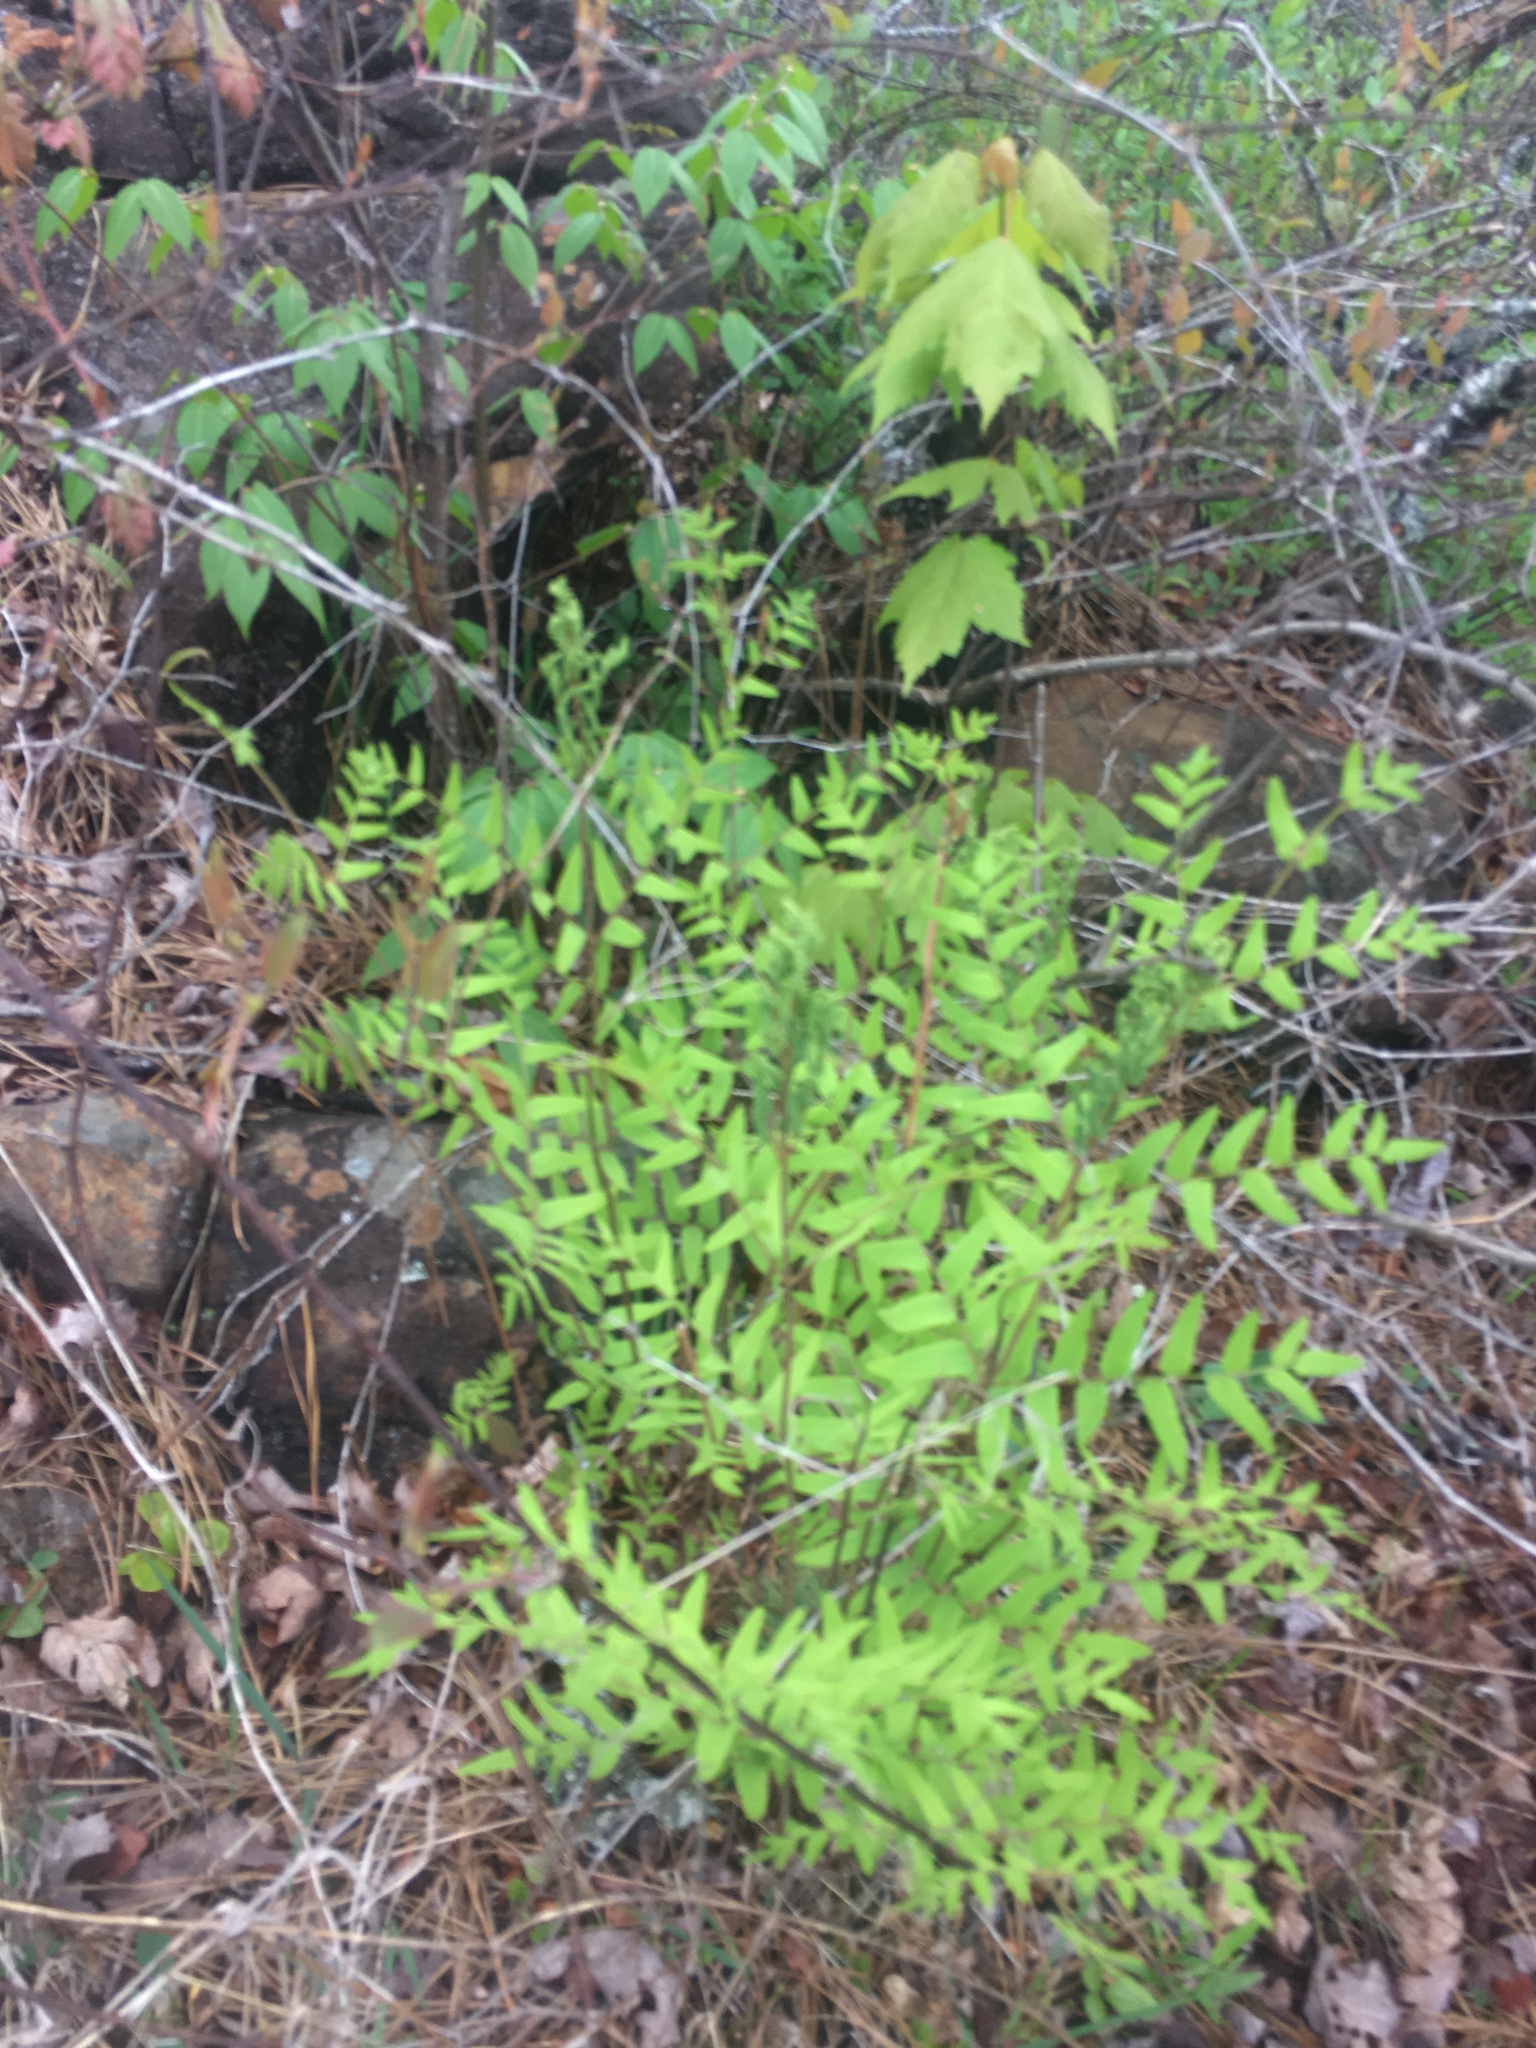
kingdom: Plantae
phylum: Tracheophyta
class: Polypodiopsida
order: Osmundales
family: Osmundaceae
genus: Osmunda
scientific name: Osmunda spectabilis
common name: American royal fern
